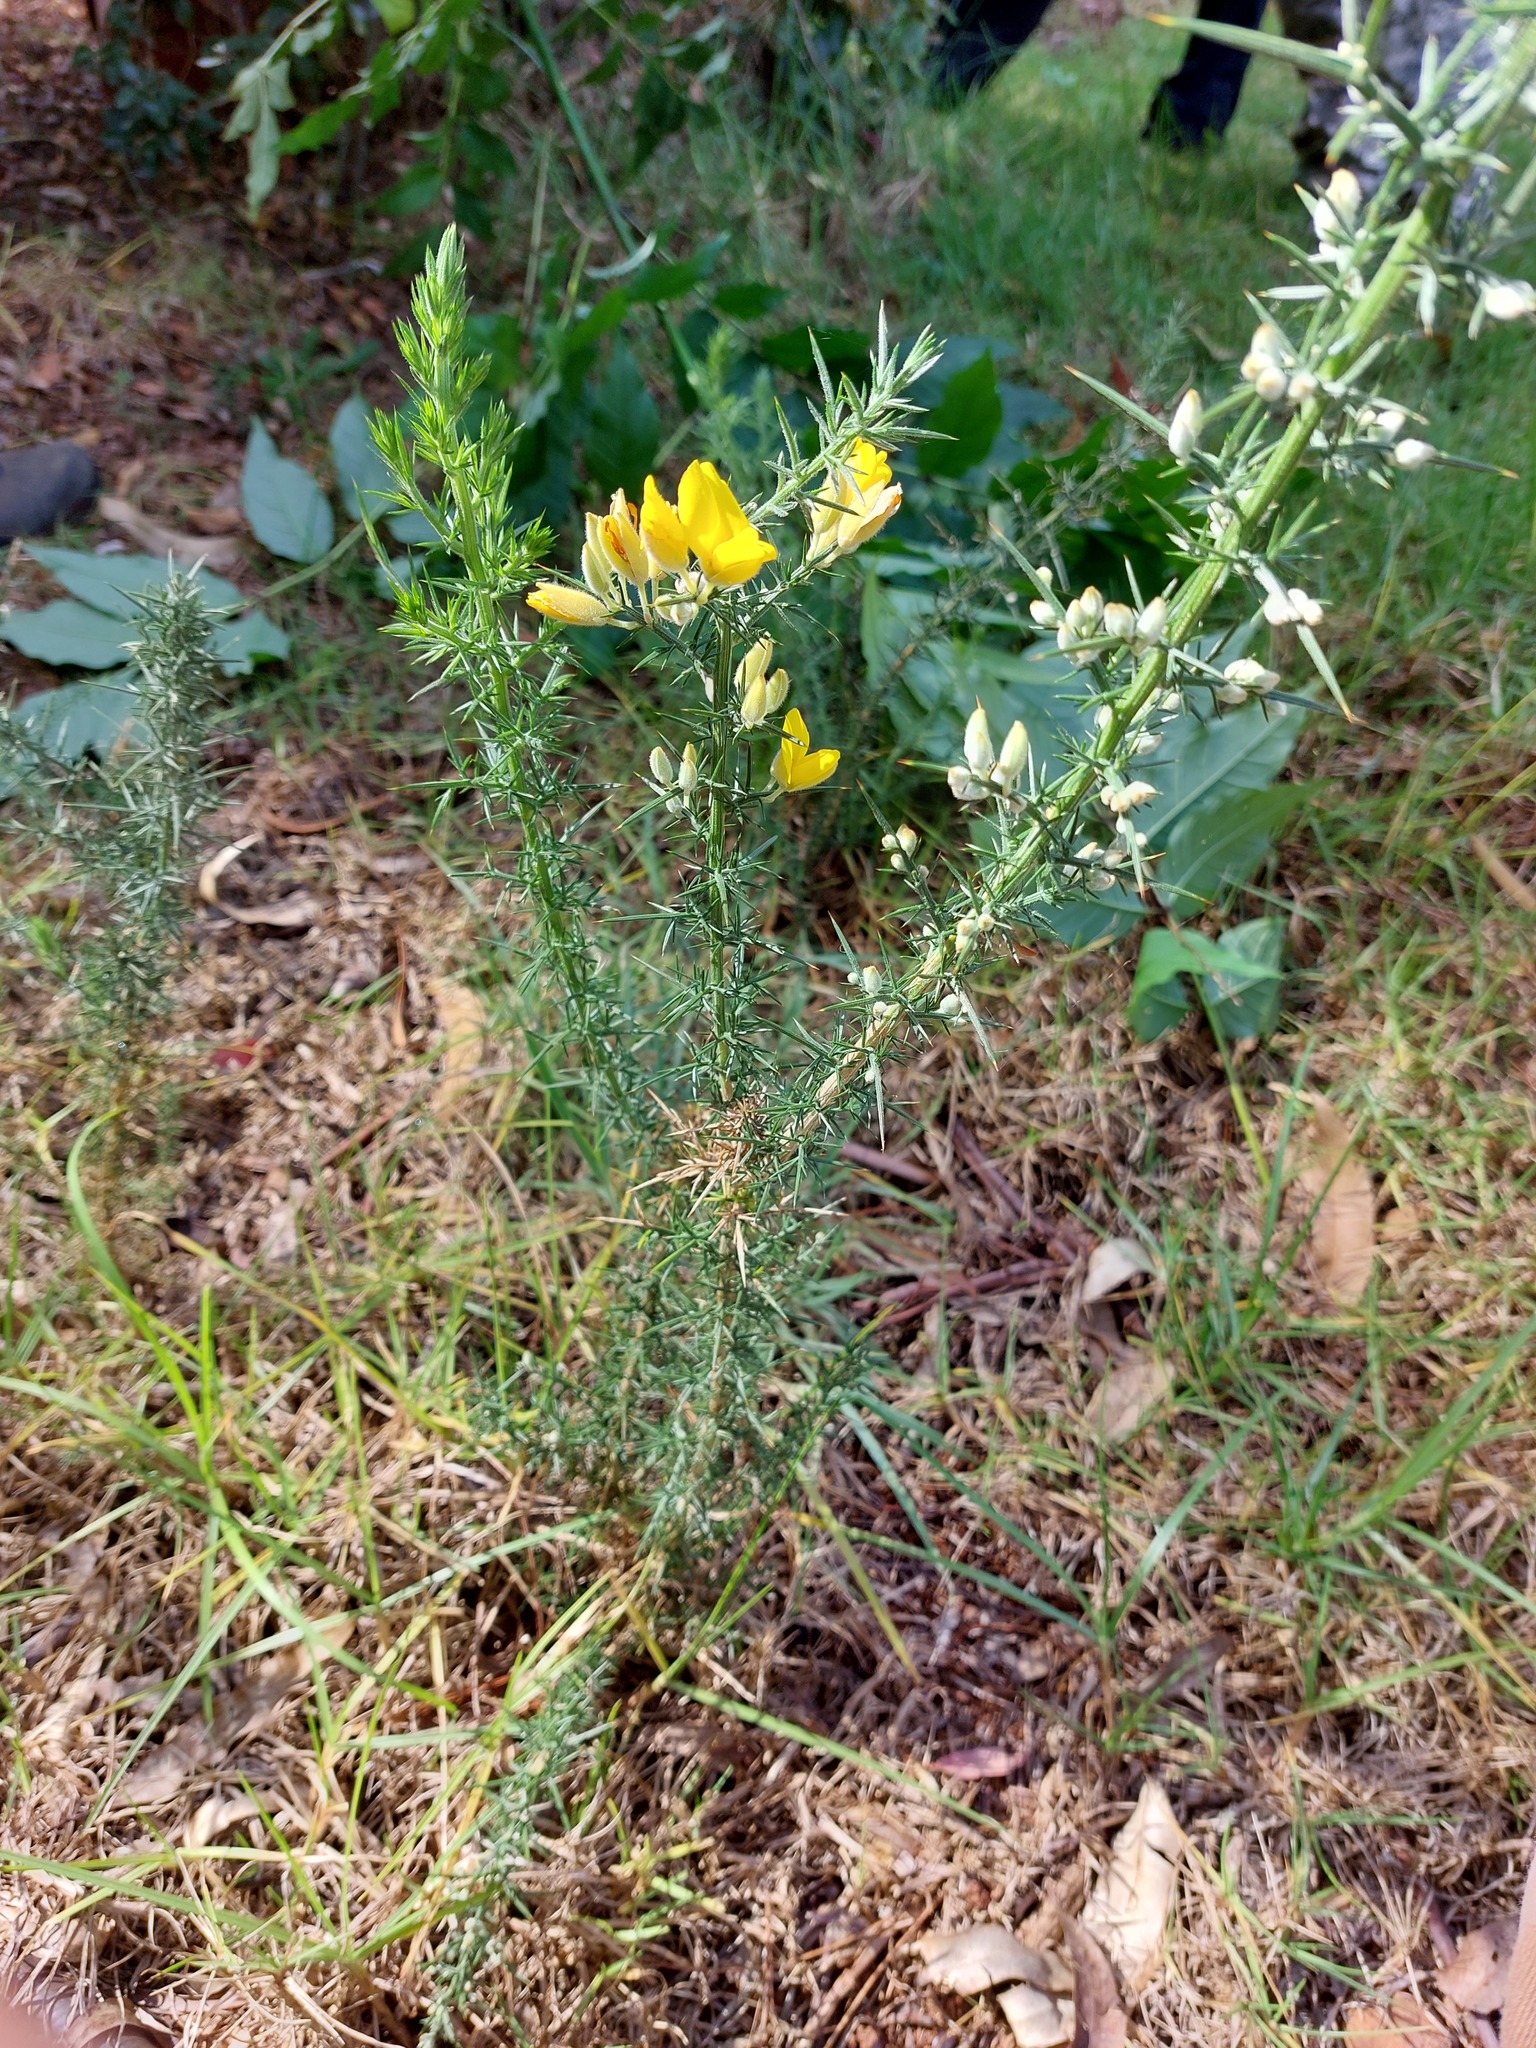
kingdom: Plantae
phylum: Tracheophyta
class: Magnoliopsida
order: Fabales
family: Fabaceae
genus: Ulex
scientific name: Ulex europaeus
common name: Common gorse
